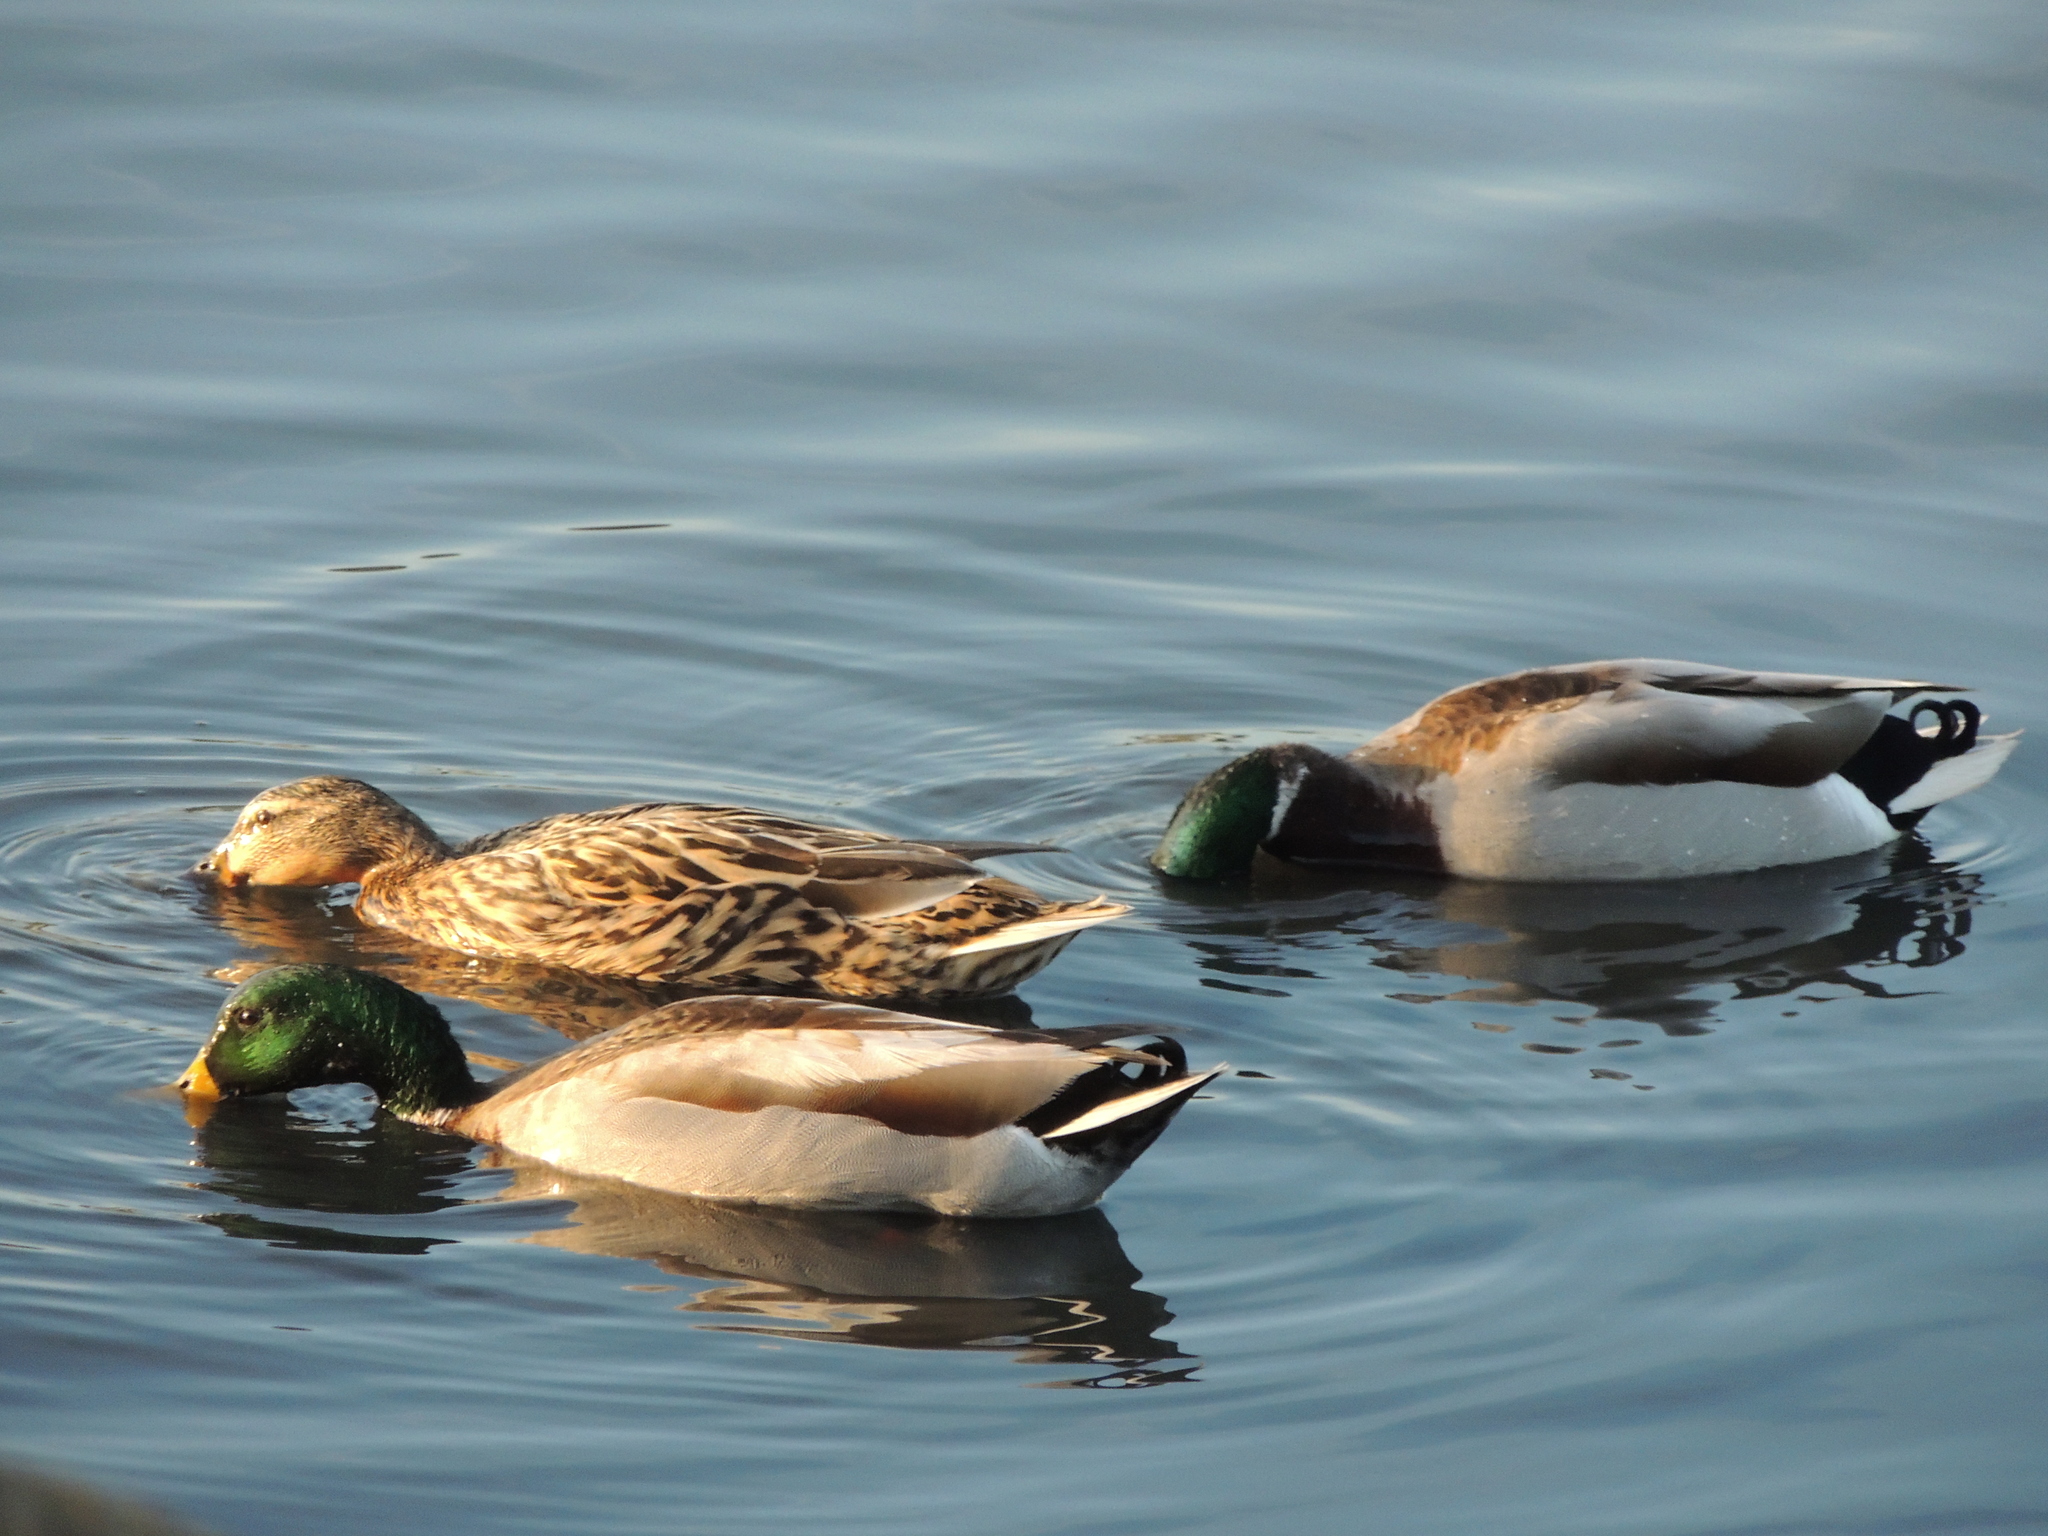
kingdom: Animalia
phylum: Chordata
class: Aves
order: Anseriformes
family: Anatidae
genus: Anas
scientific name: Anas platyrhynchos
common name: Mallard
